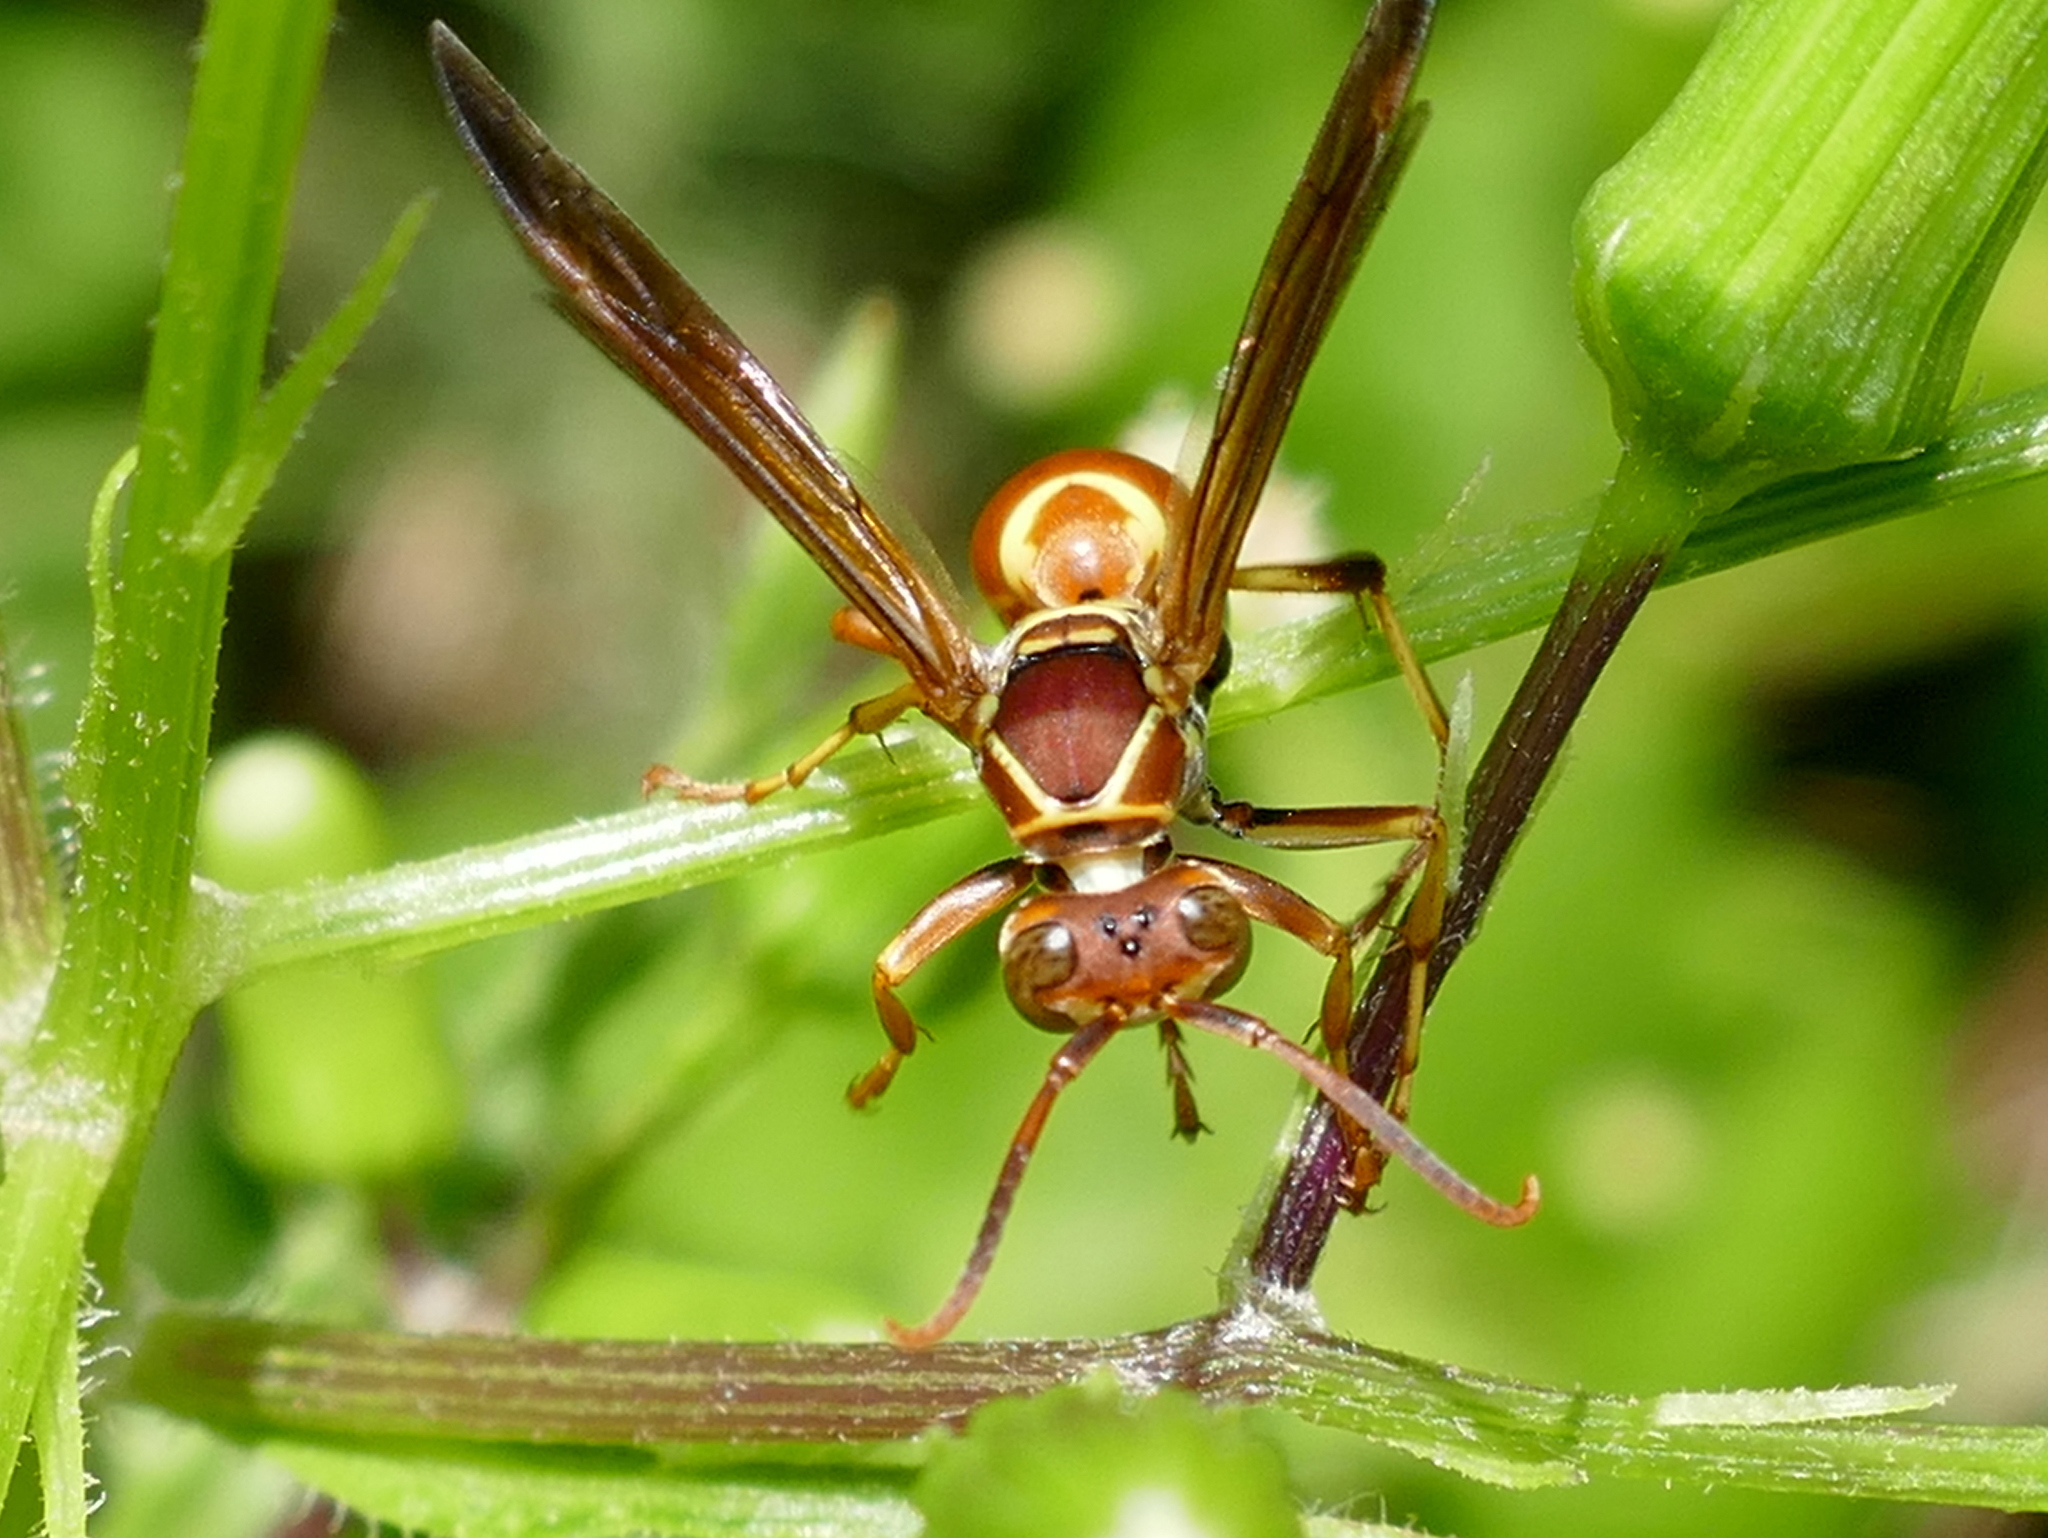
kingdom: Animalia
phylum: Arthropoda
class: Insecta
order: Hymenoptera
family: Eumenidae
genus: Polistes
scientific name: Polistes dorsalis
